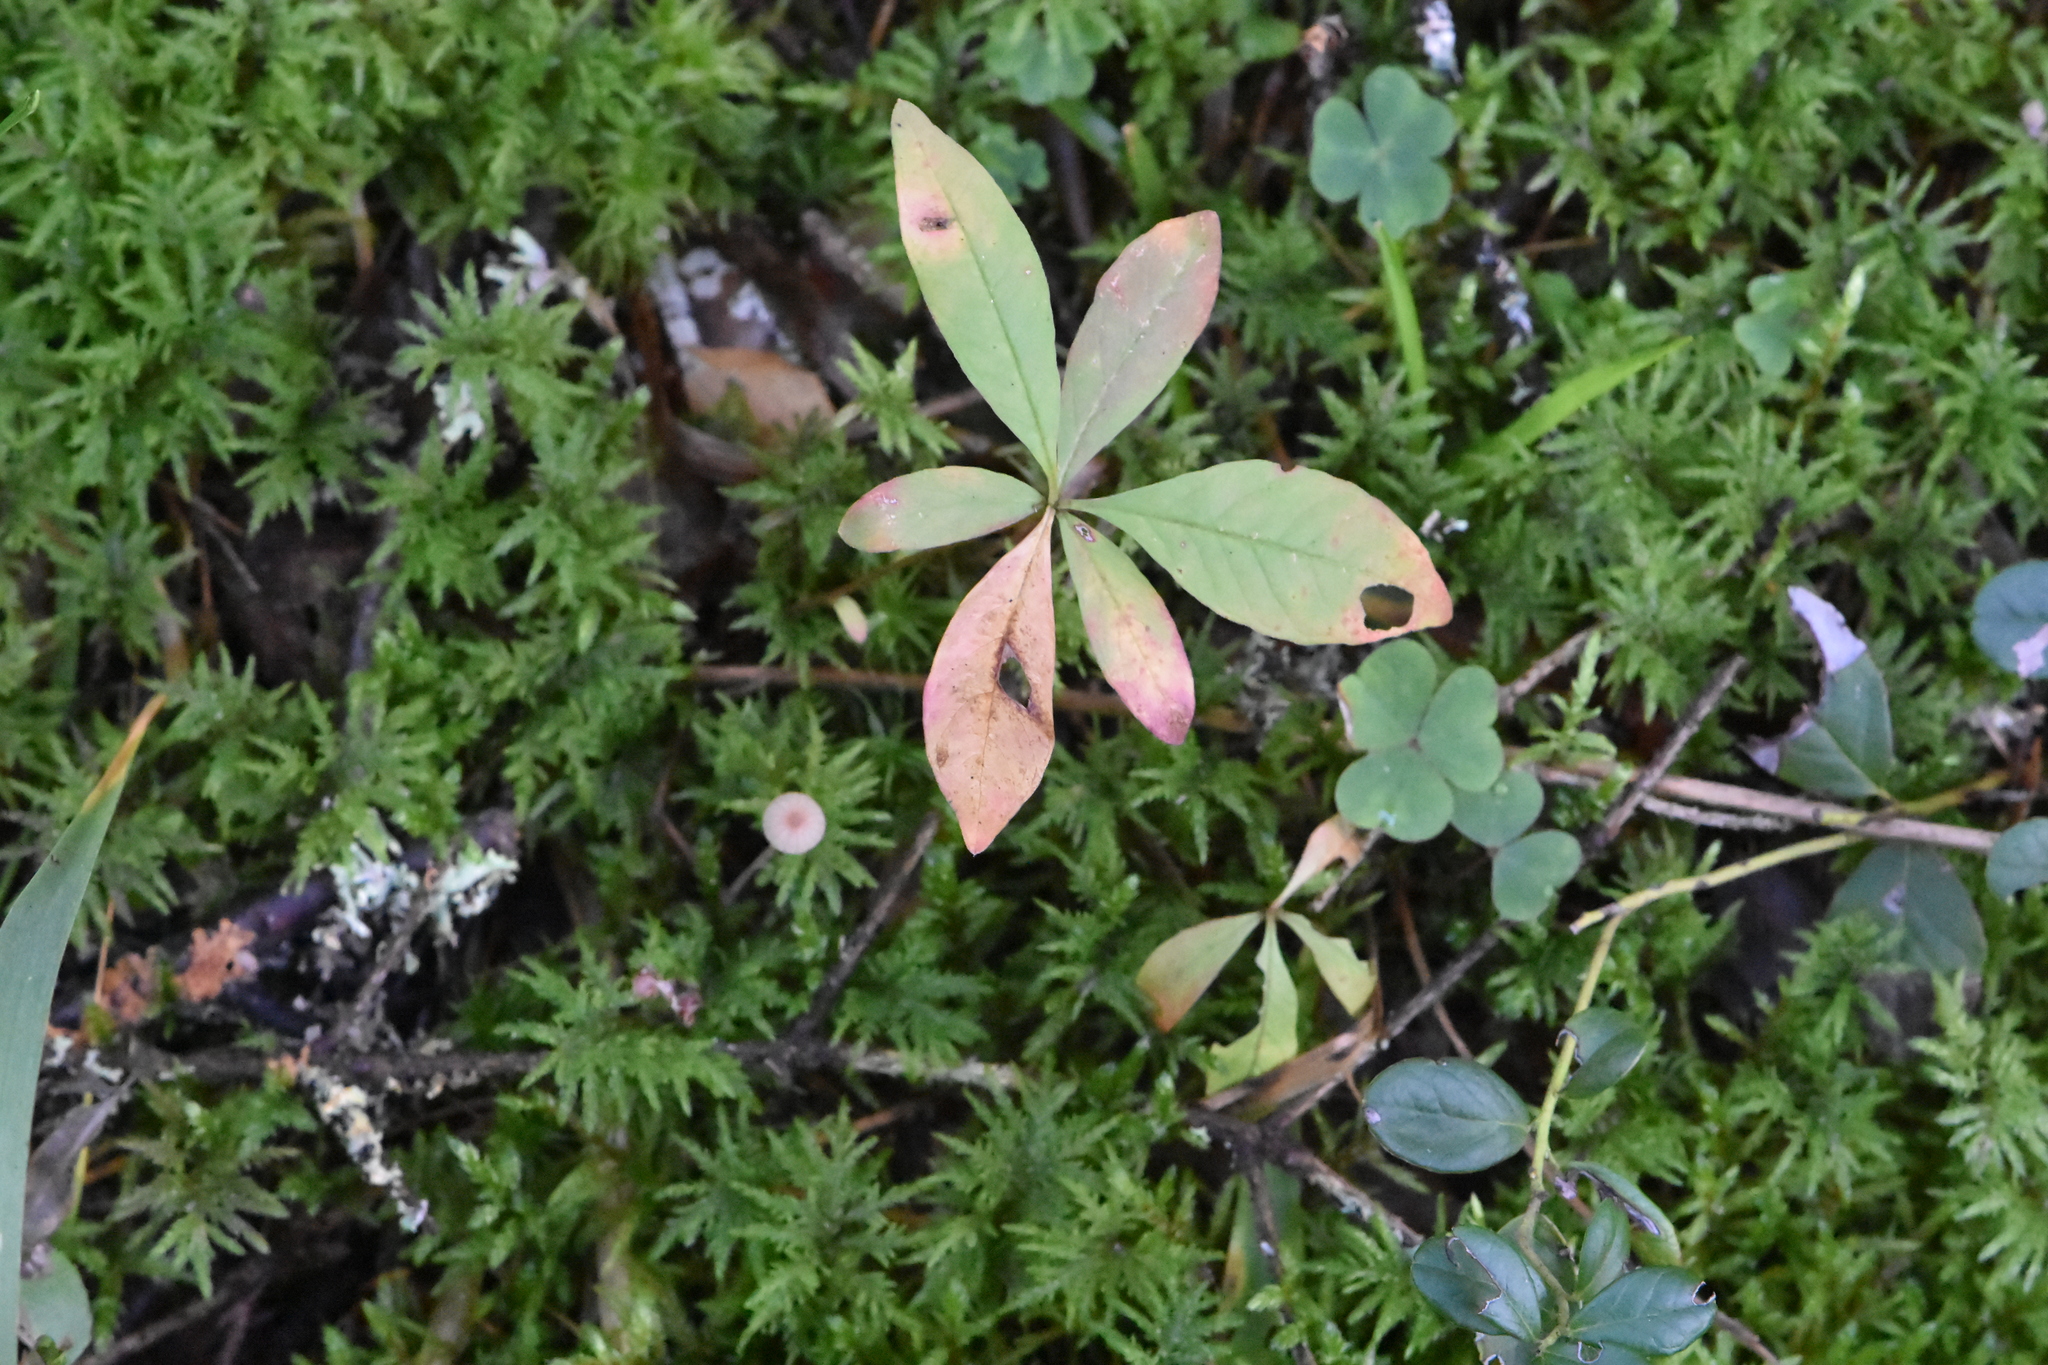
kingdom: Plantae
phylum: Tracheophyta
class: Magnoliopsida
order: Ericales
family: Primulaceae
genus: Lysimachia
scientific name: Lysimachia europaea
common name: Arctic starflower
